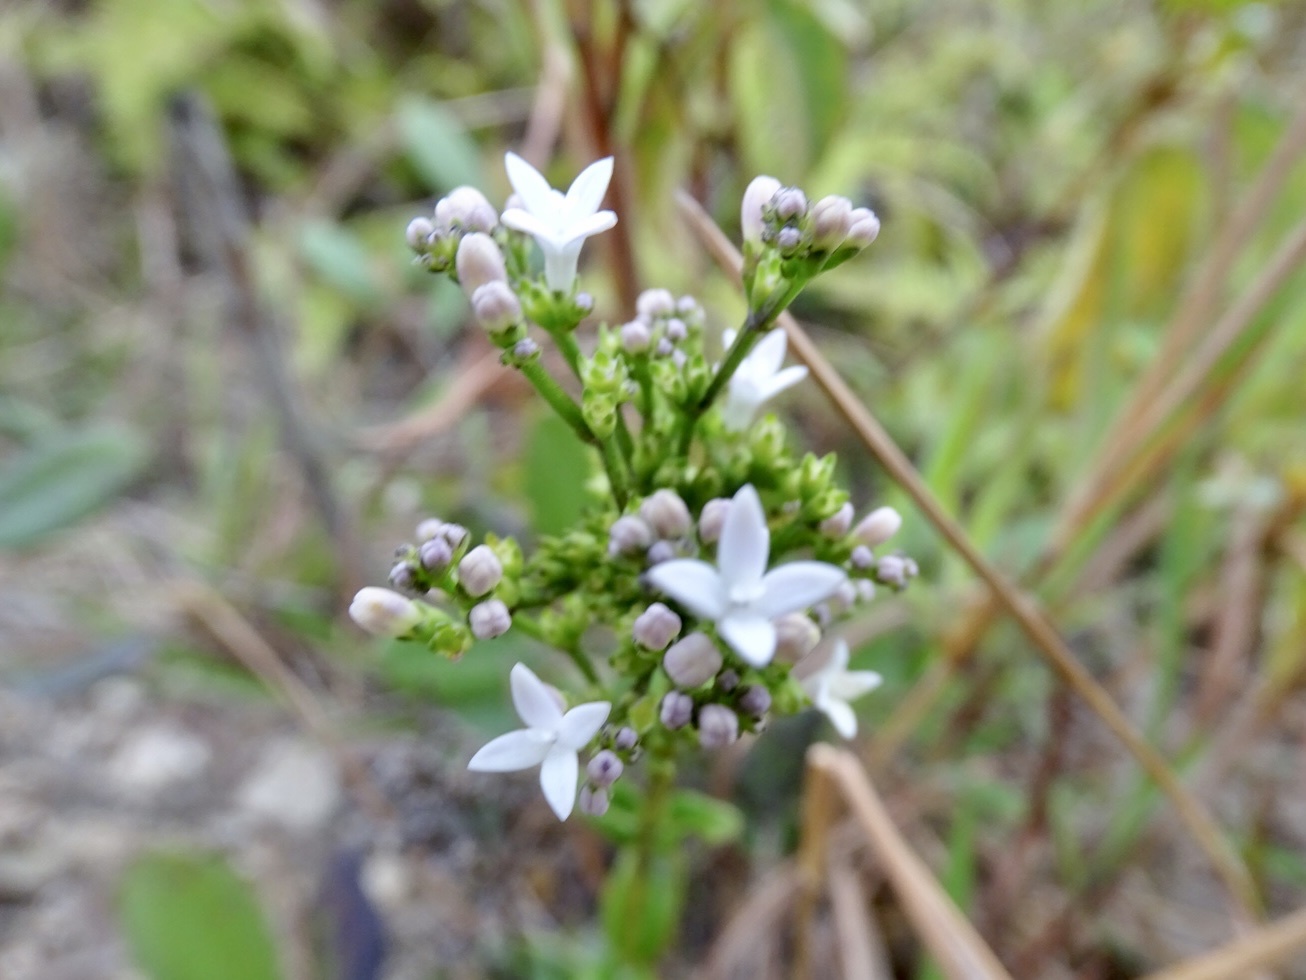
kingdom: Plantae
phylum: Tracheophyta
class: Magnoliopsida
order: Gentianales
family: Rubiaceae
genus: Hedyotis
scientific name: Hedyotis lancea
